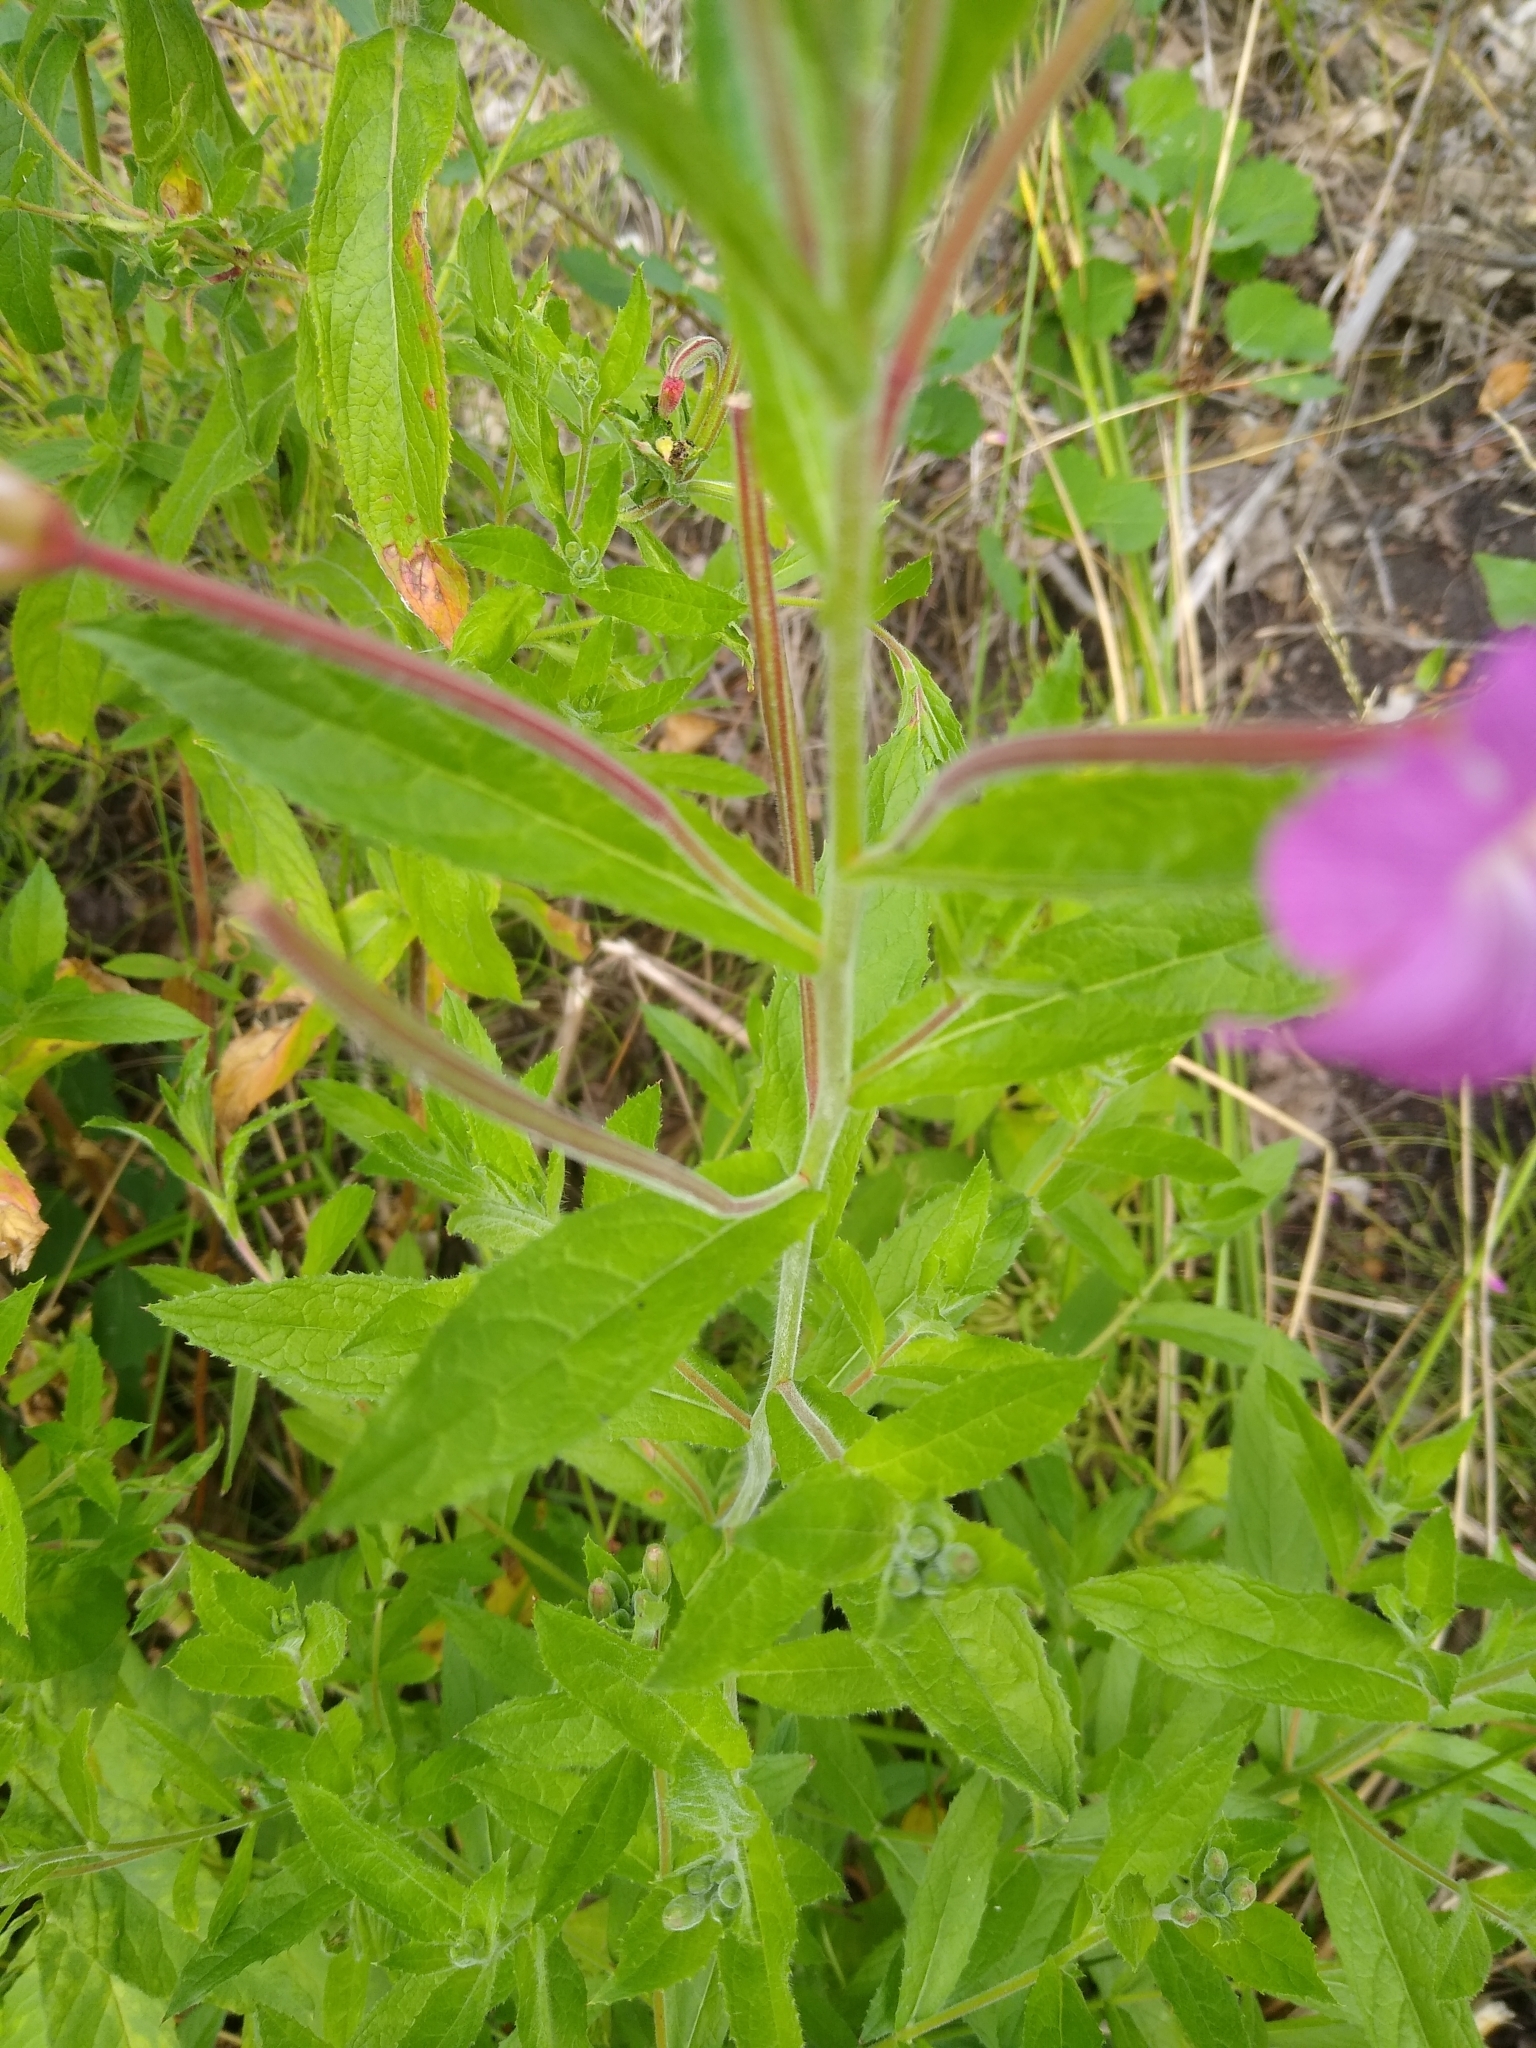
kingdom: Plantae
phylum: Tracheophyta
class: Magnoliopsida
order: Myrtales
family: Onagraceae
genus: Epilobium
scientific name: Epilobium hirsutum
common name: Great willowherb
